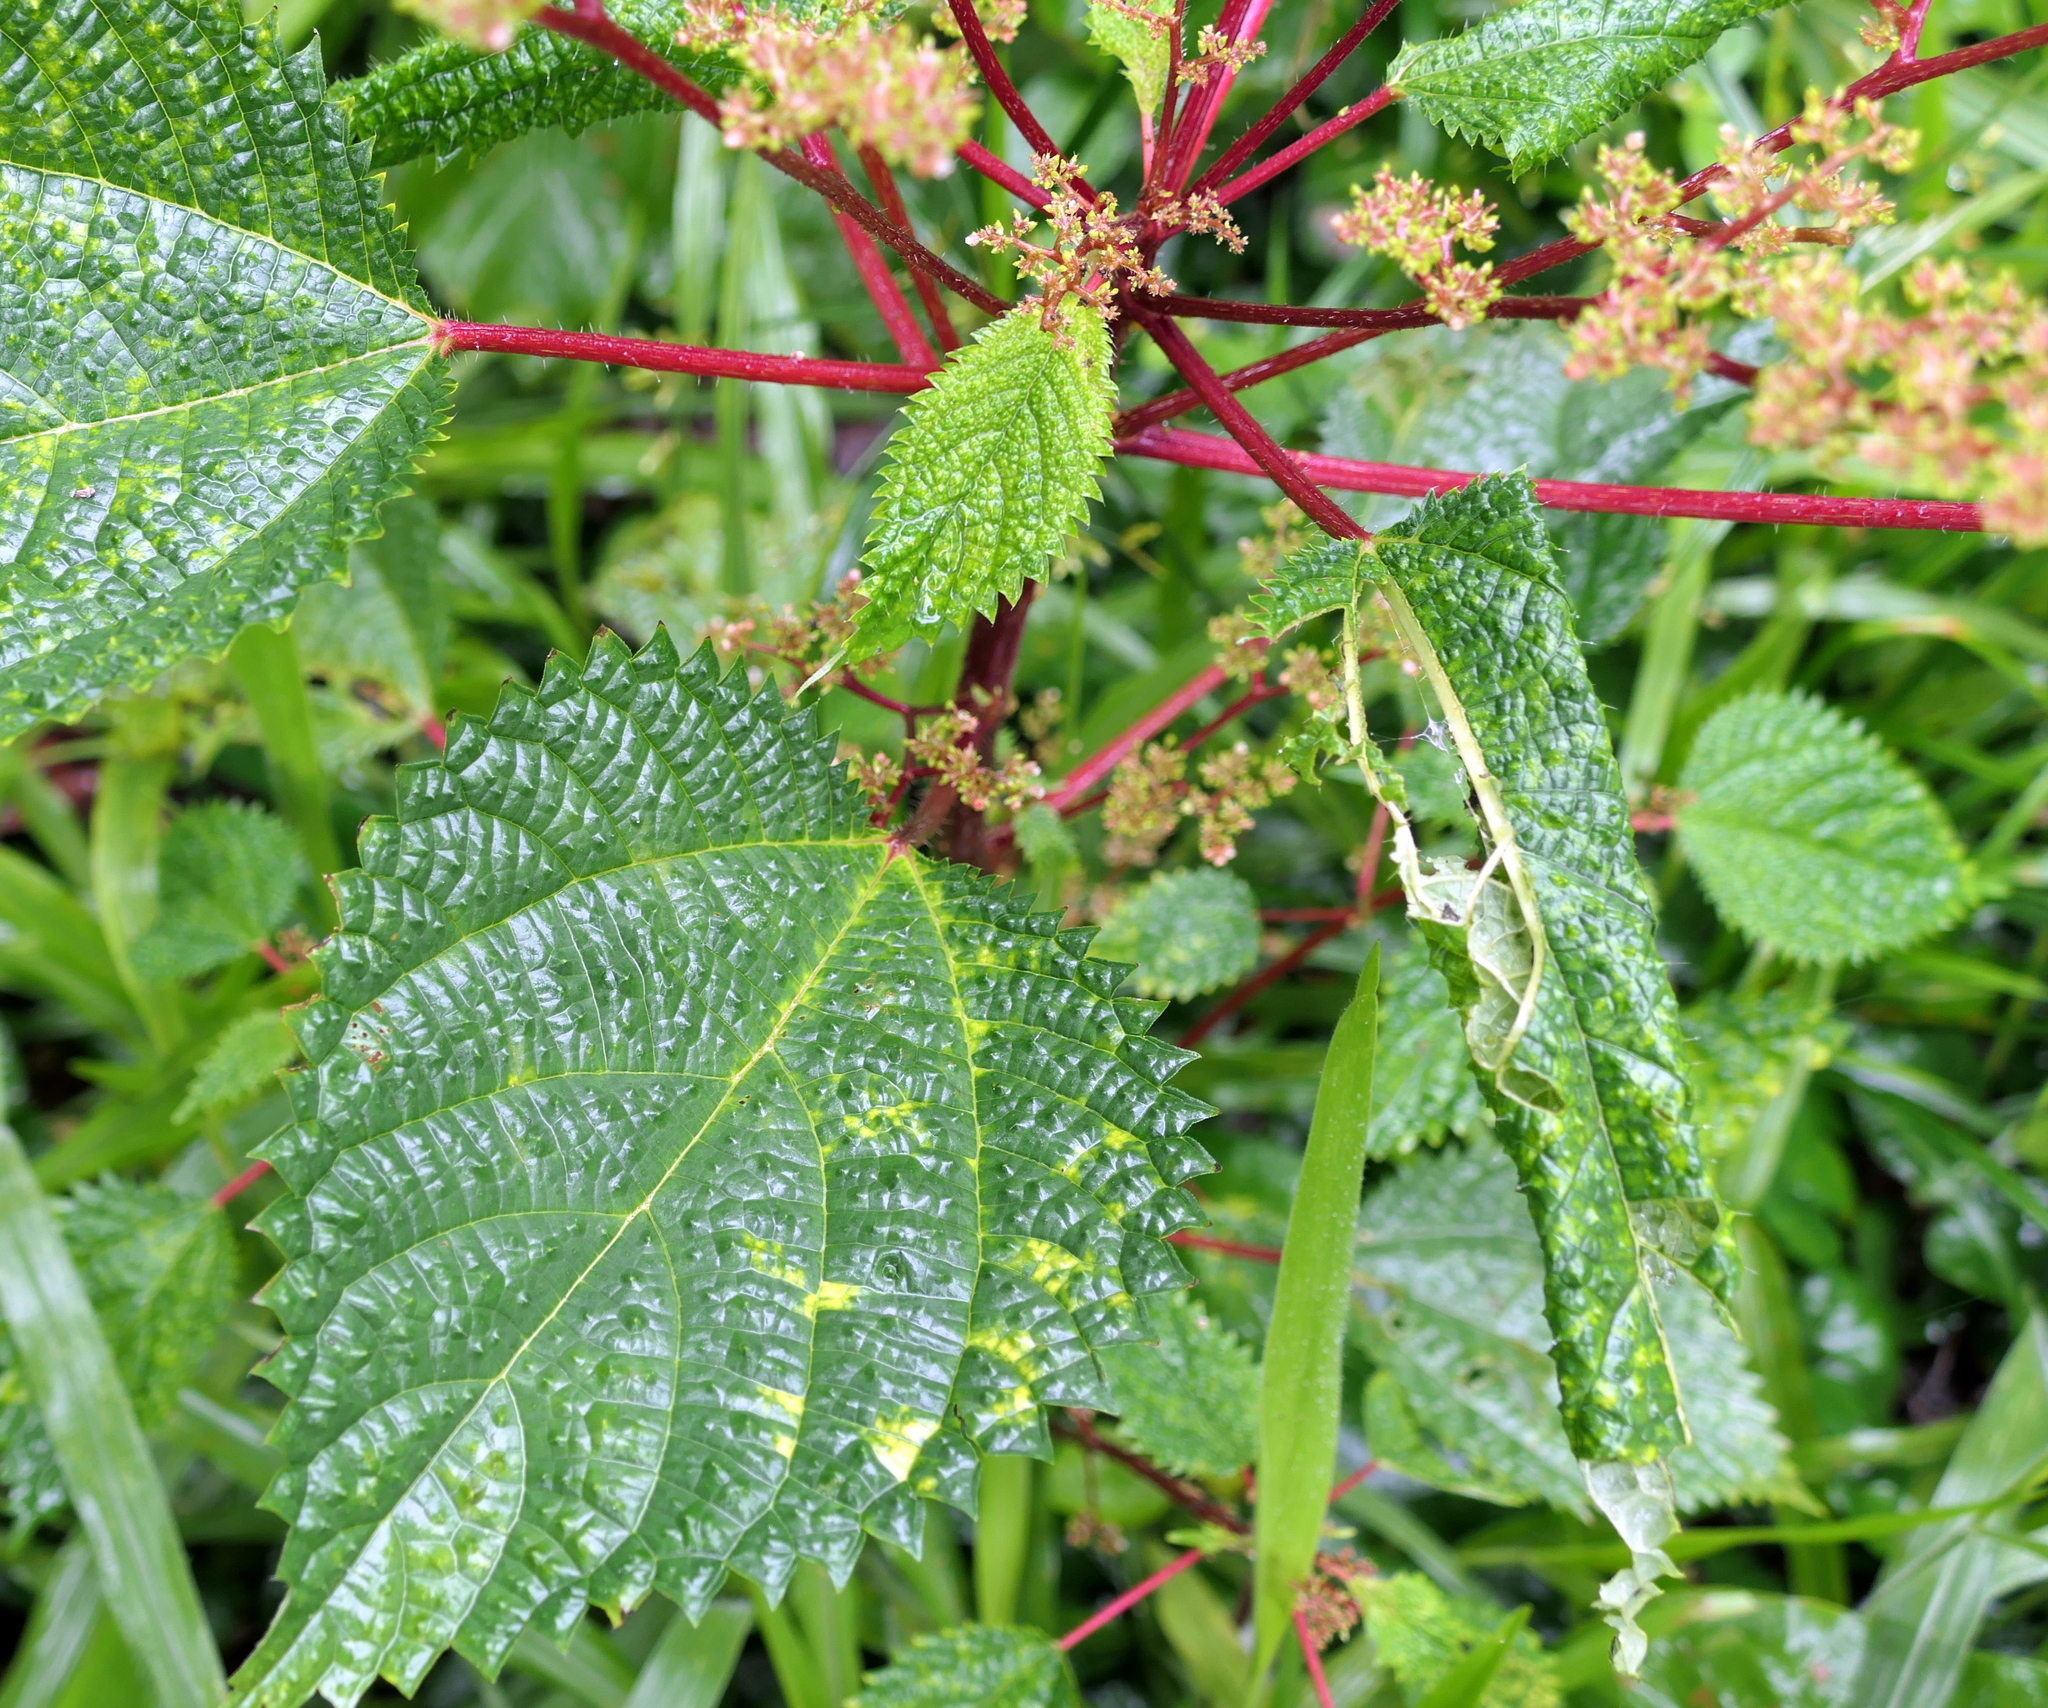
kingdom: Plantae
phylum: Tracheophyta
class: Magnoliopsida
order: Rosales
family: Urticaceae
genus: Laportea
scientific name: Laportea aestuans
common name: West indian woodnettle
